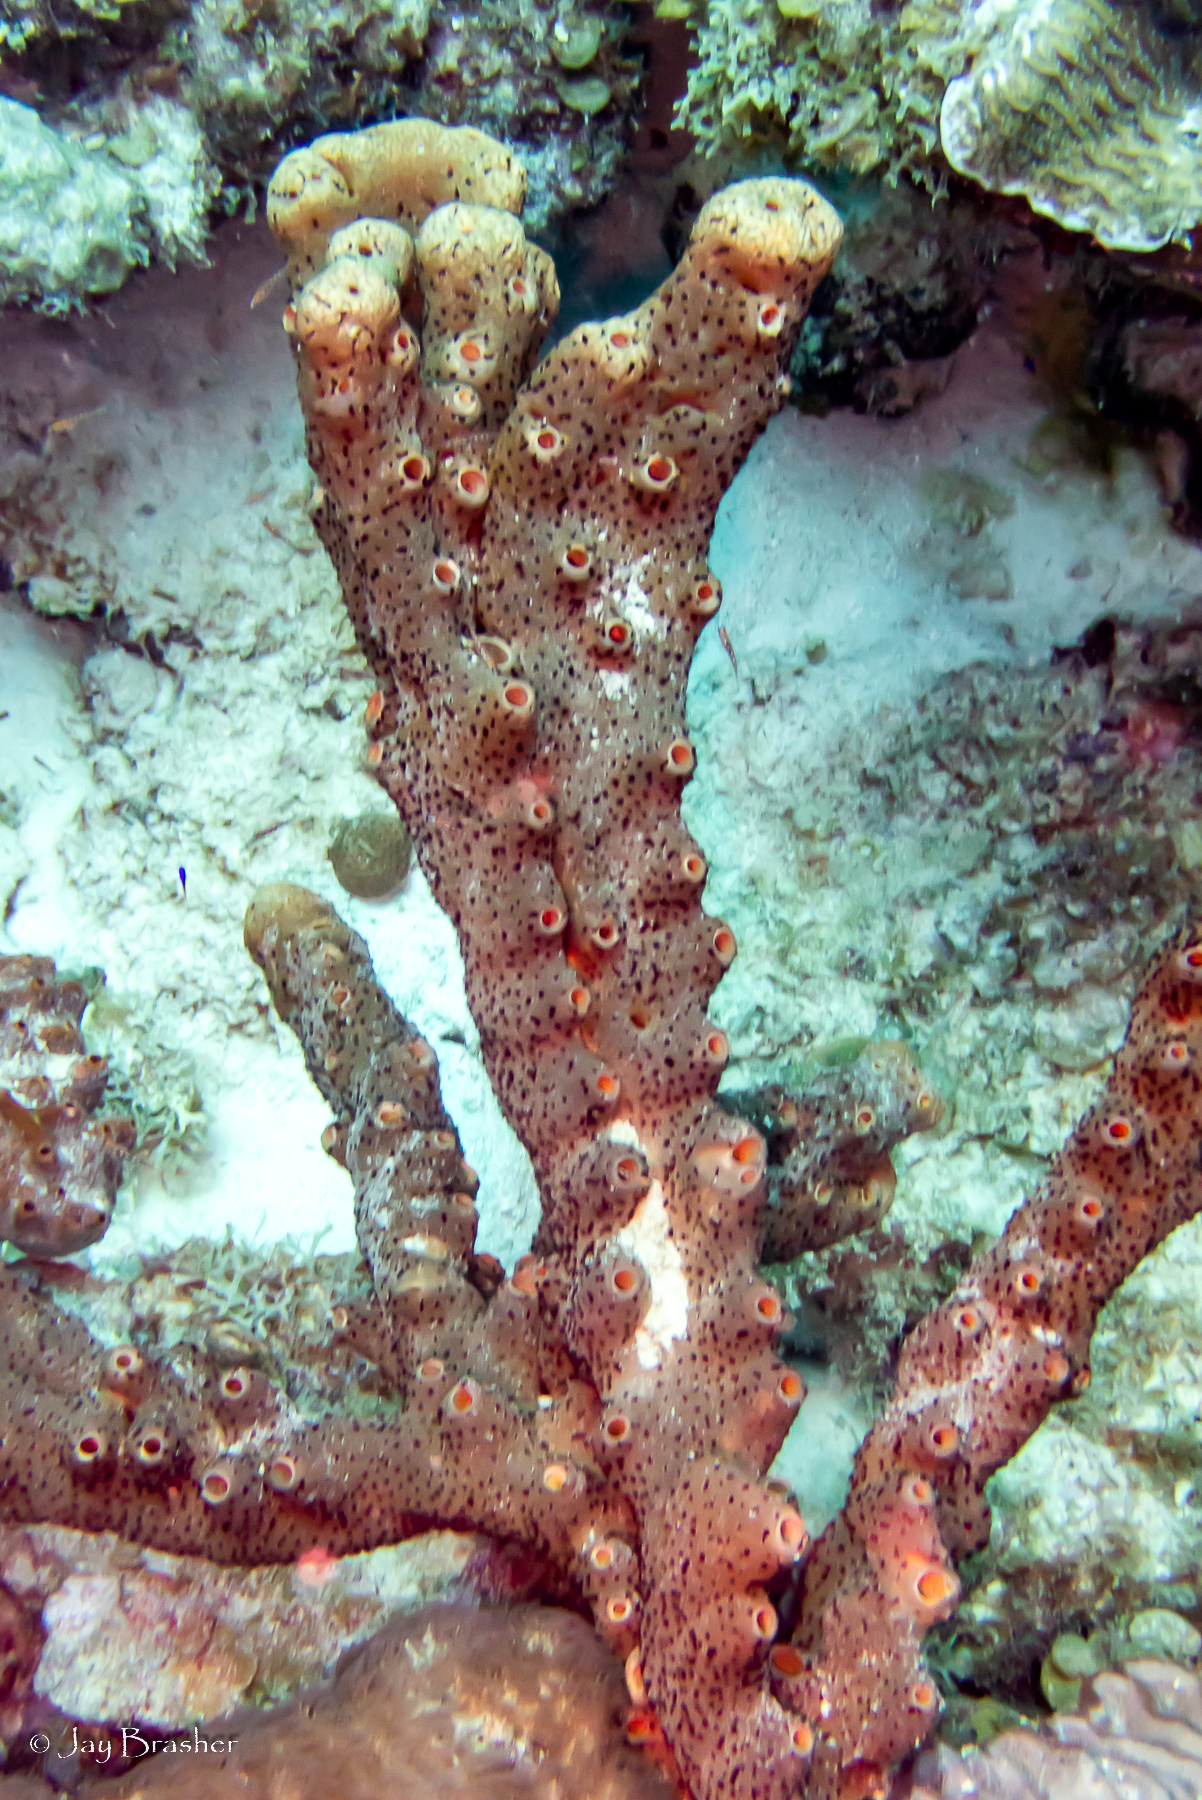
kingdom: Animalia
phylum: Porifera
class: Demospongiae
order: Agelasida
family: Agelasidae
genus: Agelas
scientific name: Agelas conifera
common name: Brown tube sponge
